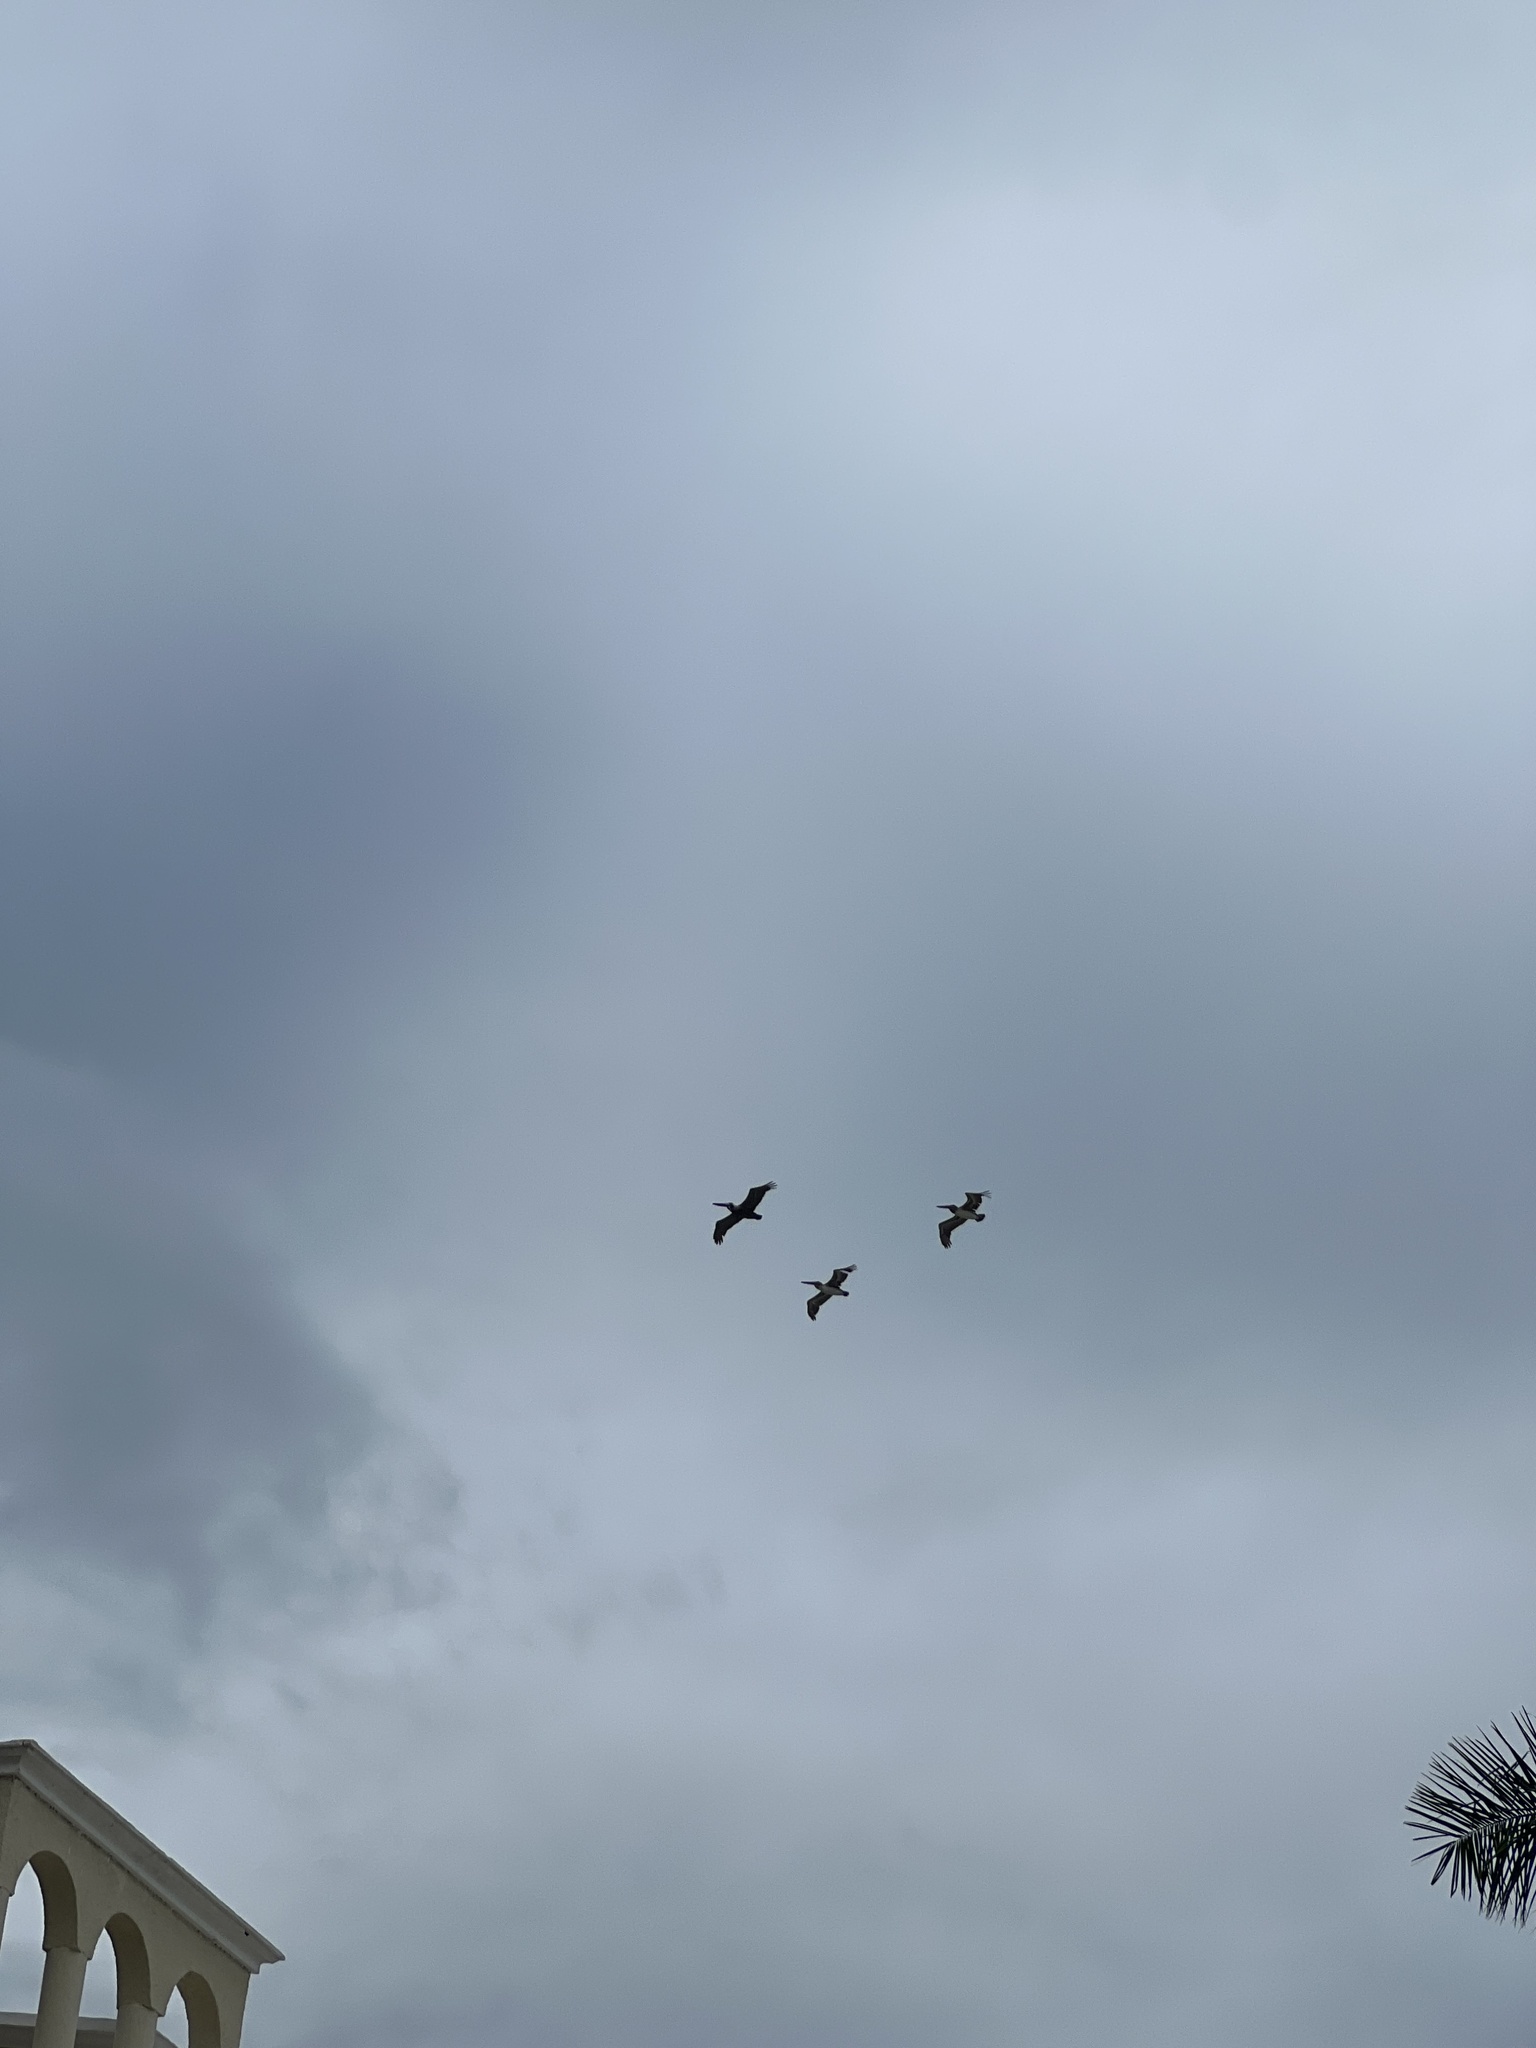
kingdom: Animalia
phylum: Chordata
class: Aves
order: Pelecaniformes
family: Pelecanidae
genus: Pelecanus
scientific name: Pelecanus occidentalis
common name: Brown pelican
